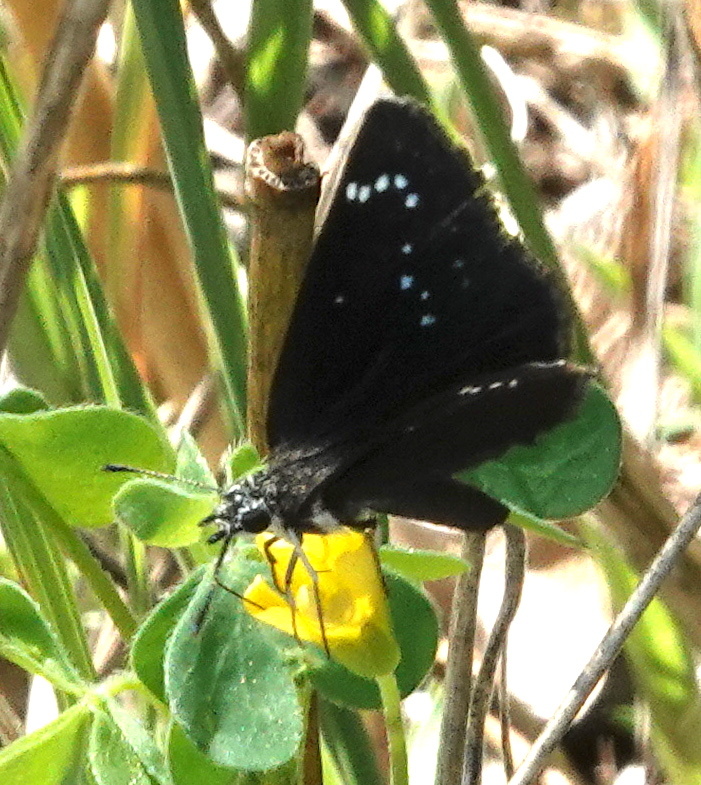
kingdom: Animalia
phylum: Arthropoda
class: Insecta
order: Lepidoptera
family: Hesperiidae
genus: Pholisora
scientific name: Pholisora catullus
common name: Common sootywing
